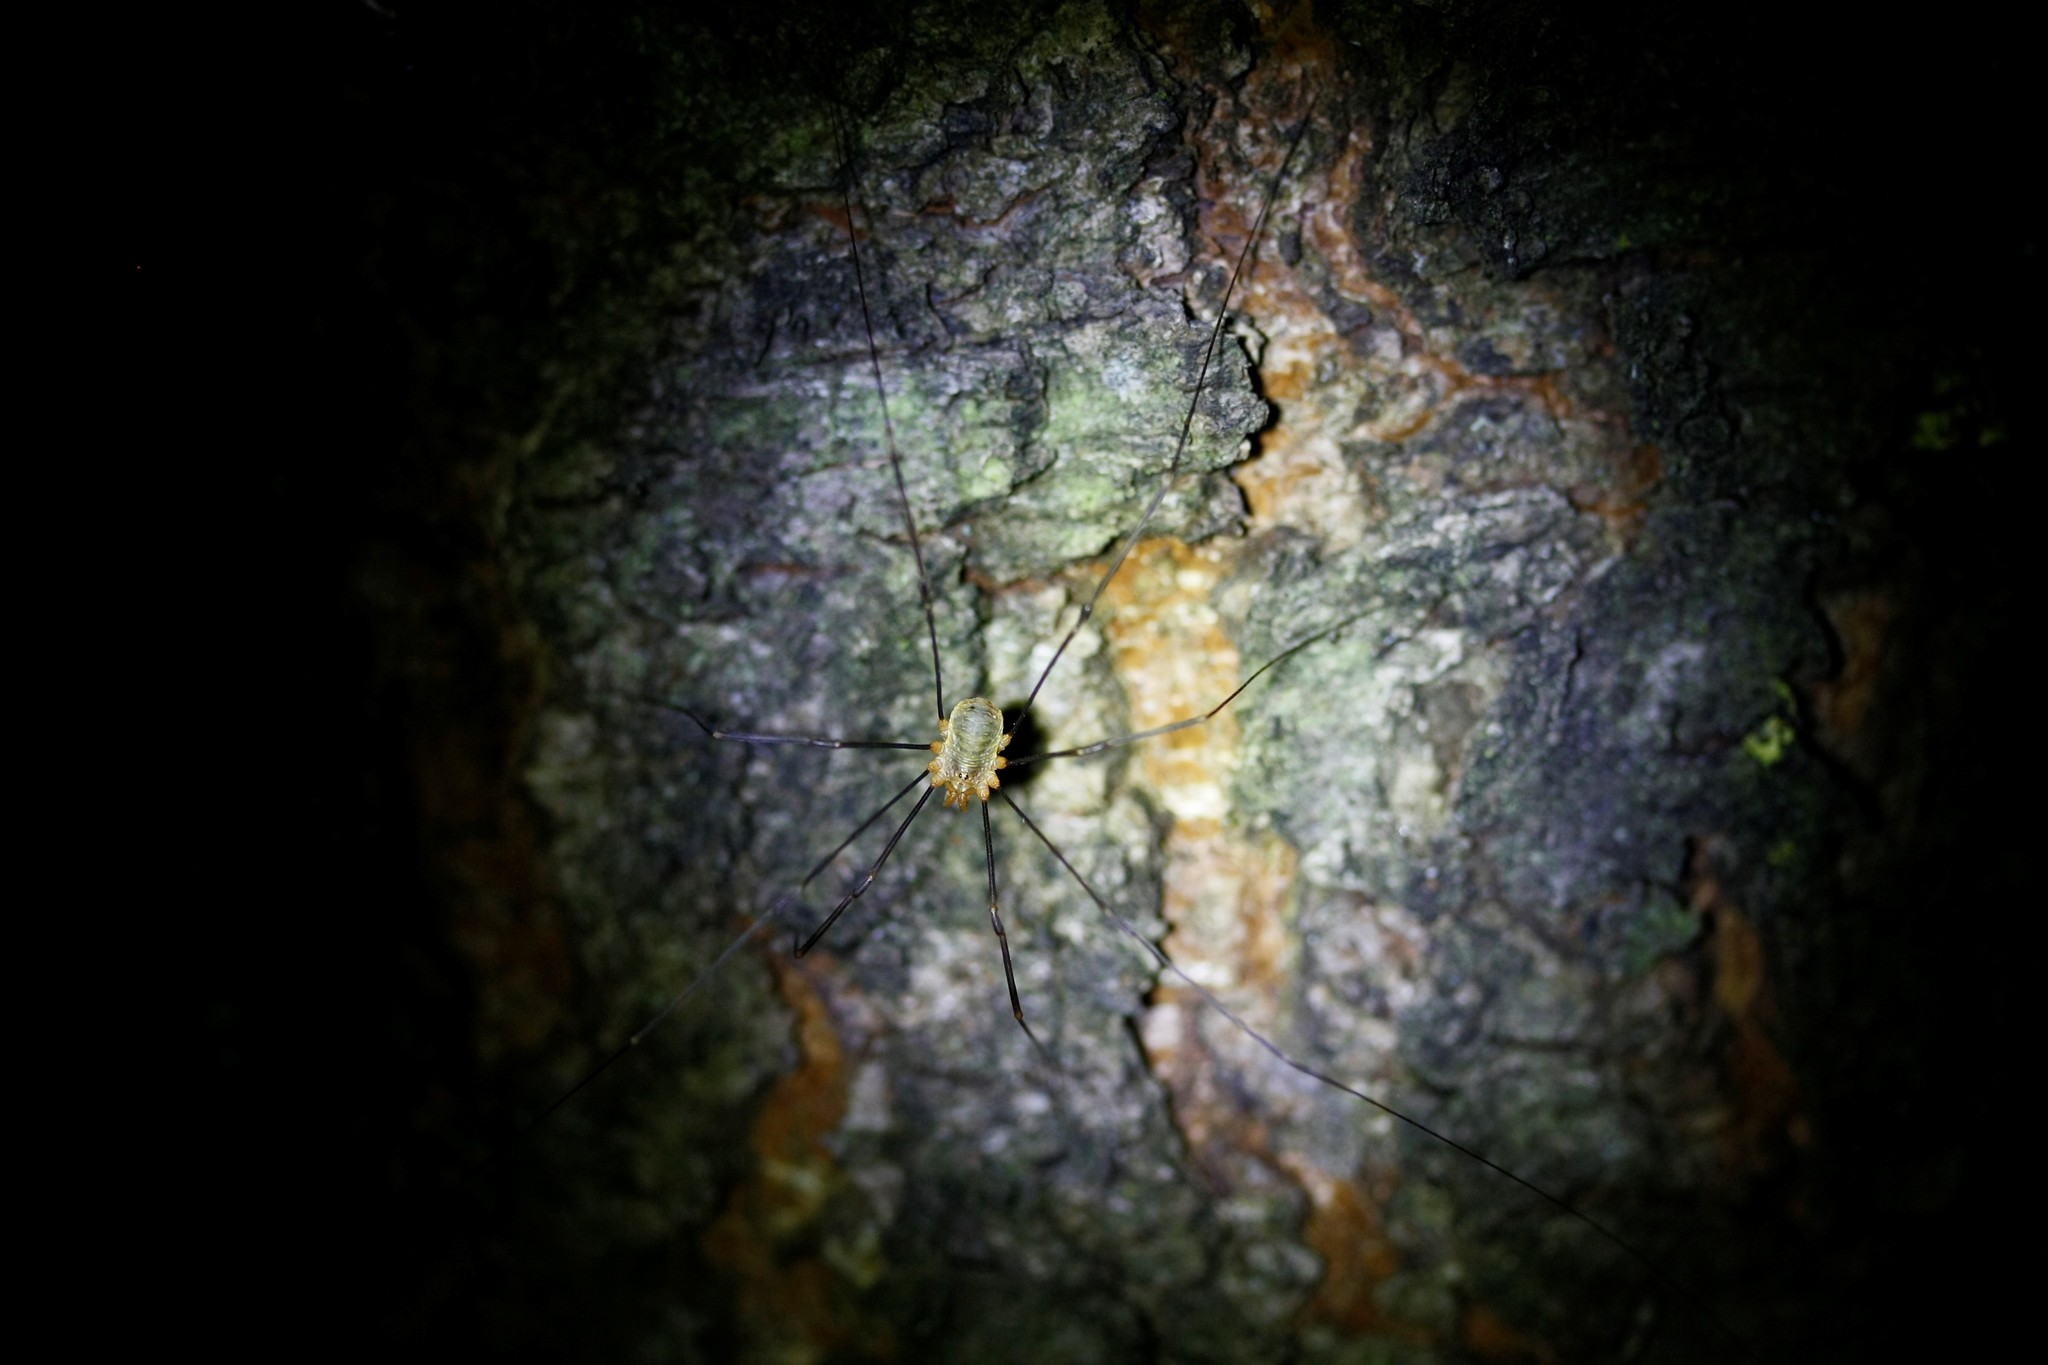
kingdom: Animalia
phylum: Arthropoda
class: Arachnida
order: Opiliones
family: Phalangiidae
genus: Opilio
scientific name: Opilio canestrinii
